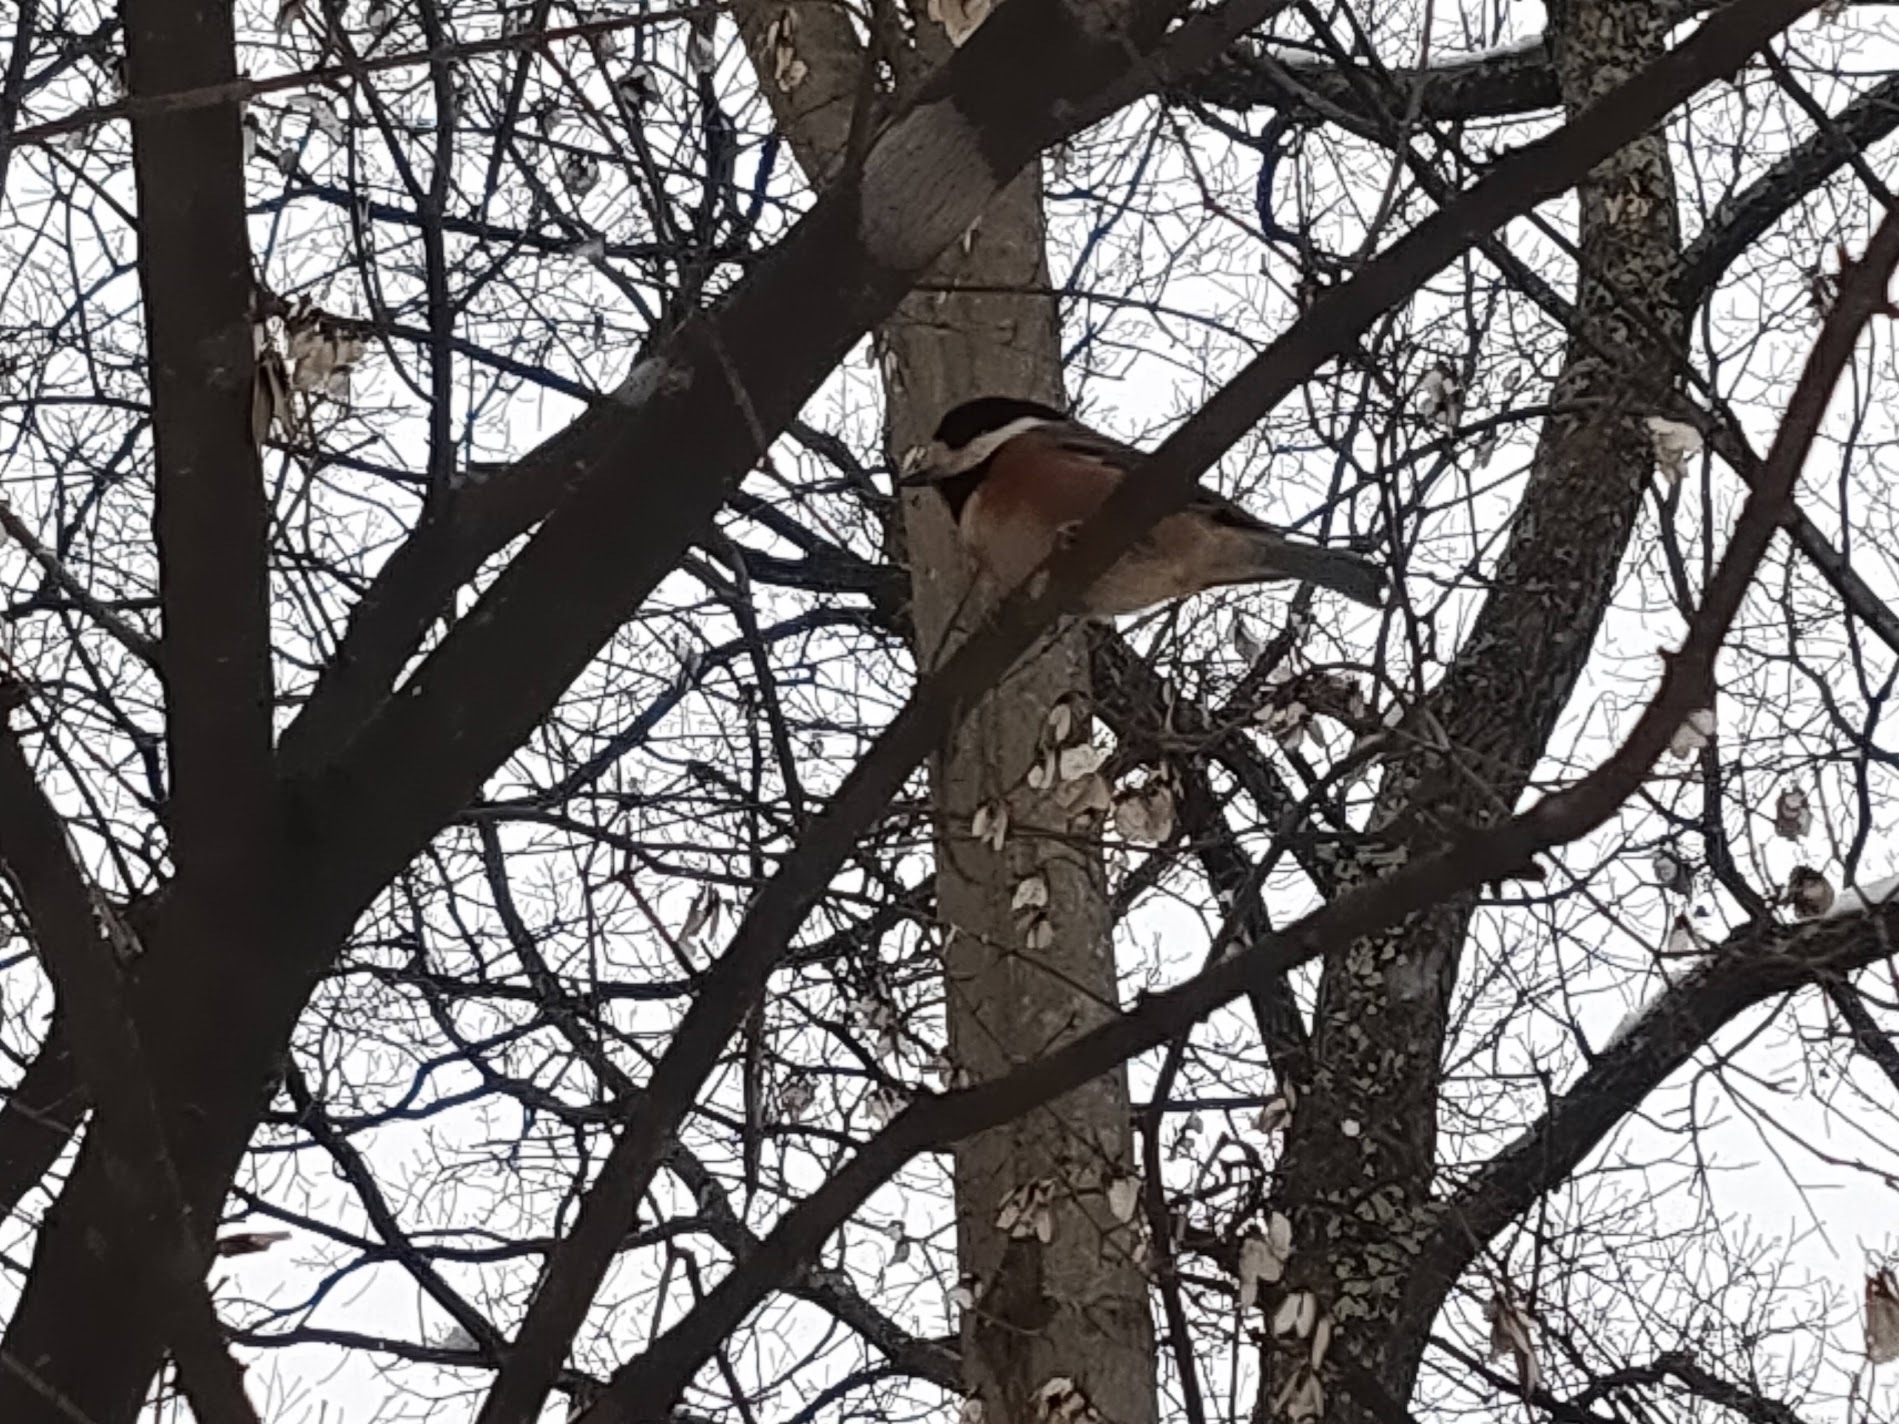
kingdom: Animalia
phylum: Chordata
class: Aves
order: Passeriformes
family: Paridae
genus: Poecile
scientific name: Poecile varius
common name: Varied tit
